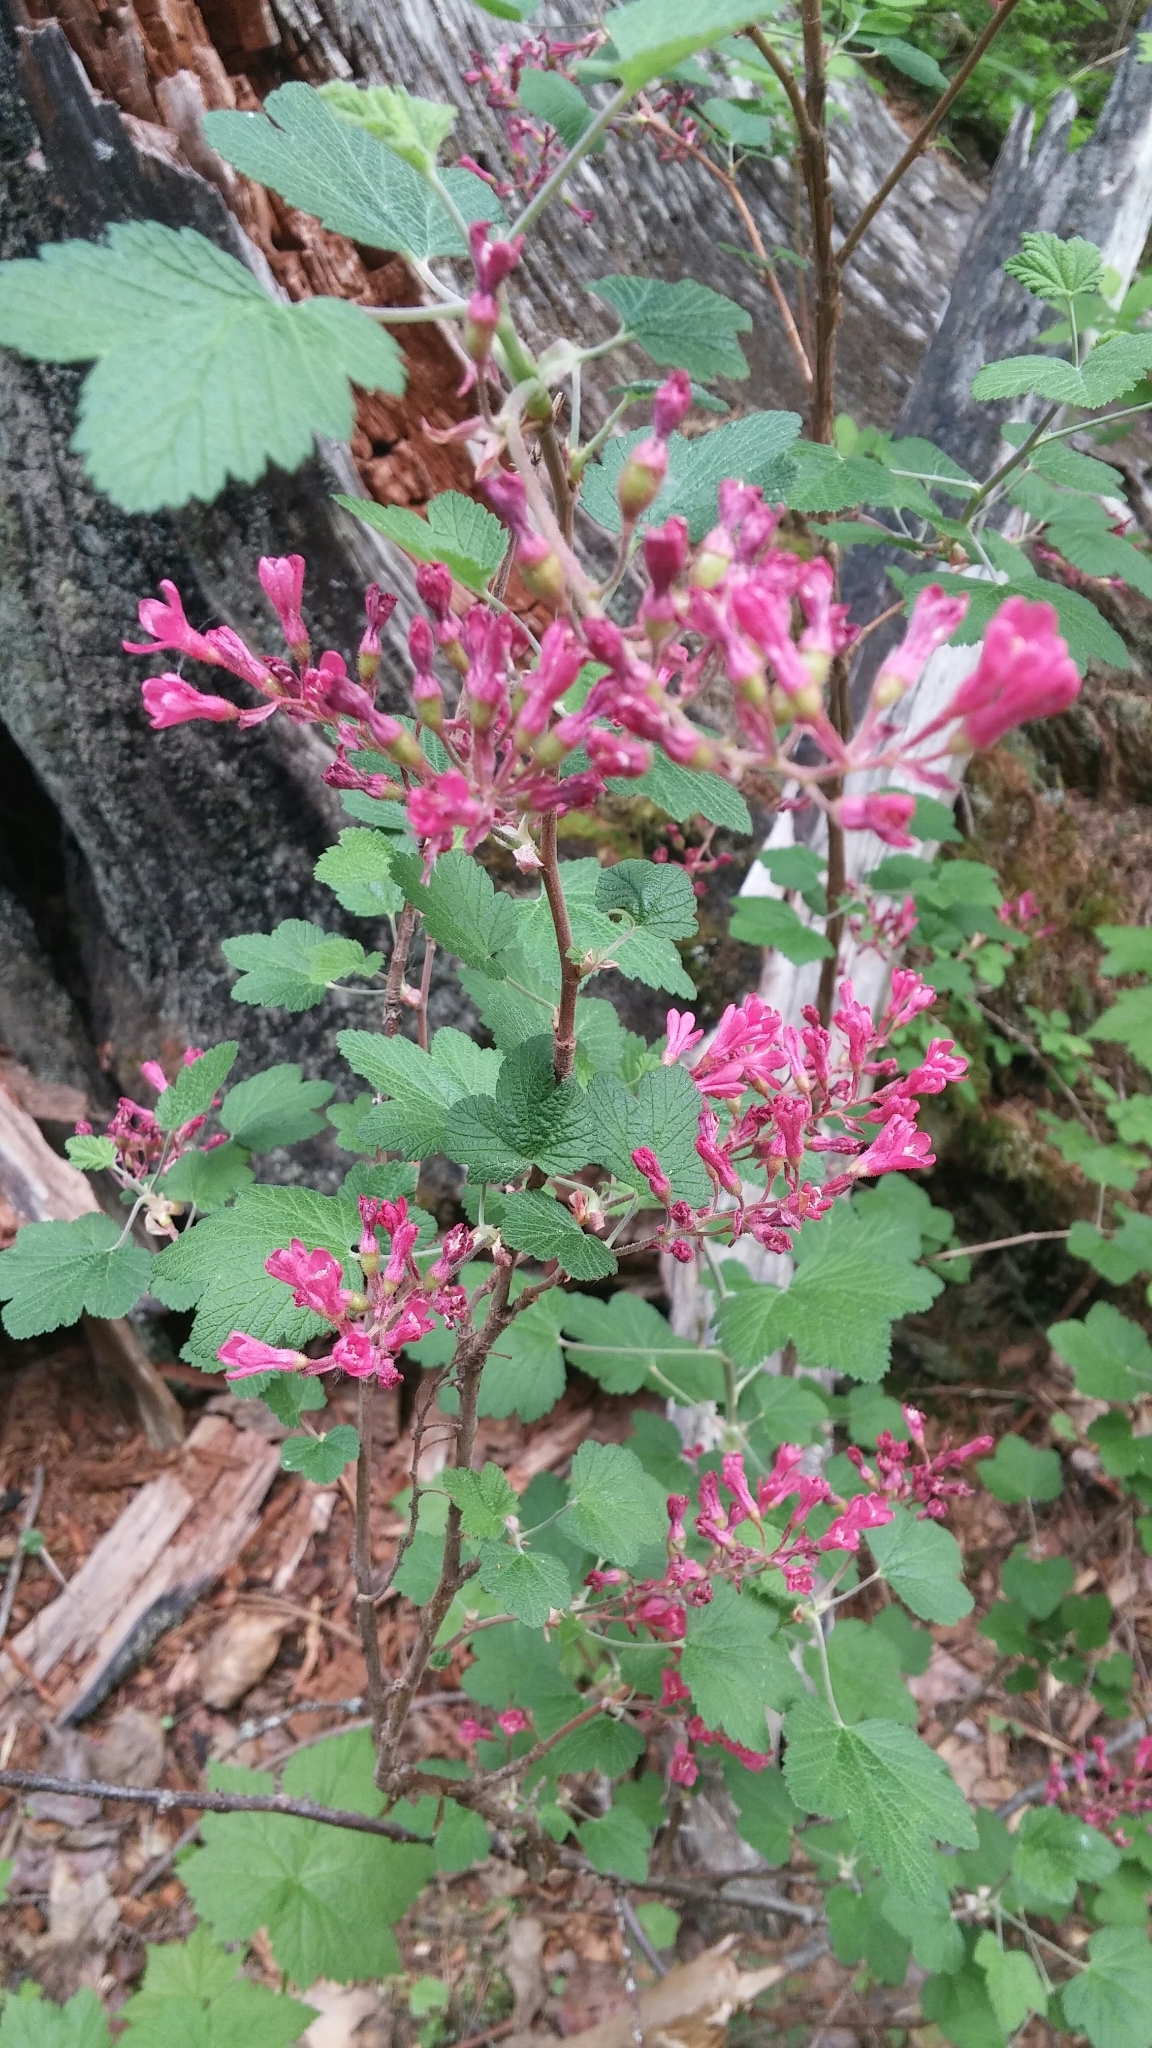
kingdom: Plantae
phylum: Tracheophyta
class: Magnoliopsida
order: Saxifragales
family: Grossulariaceae
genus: Ribes
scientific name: Ribes sanguineum
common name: Flowering currant
